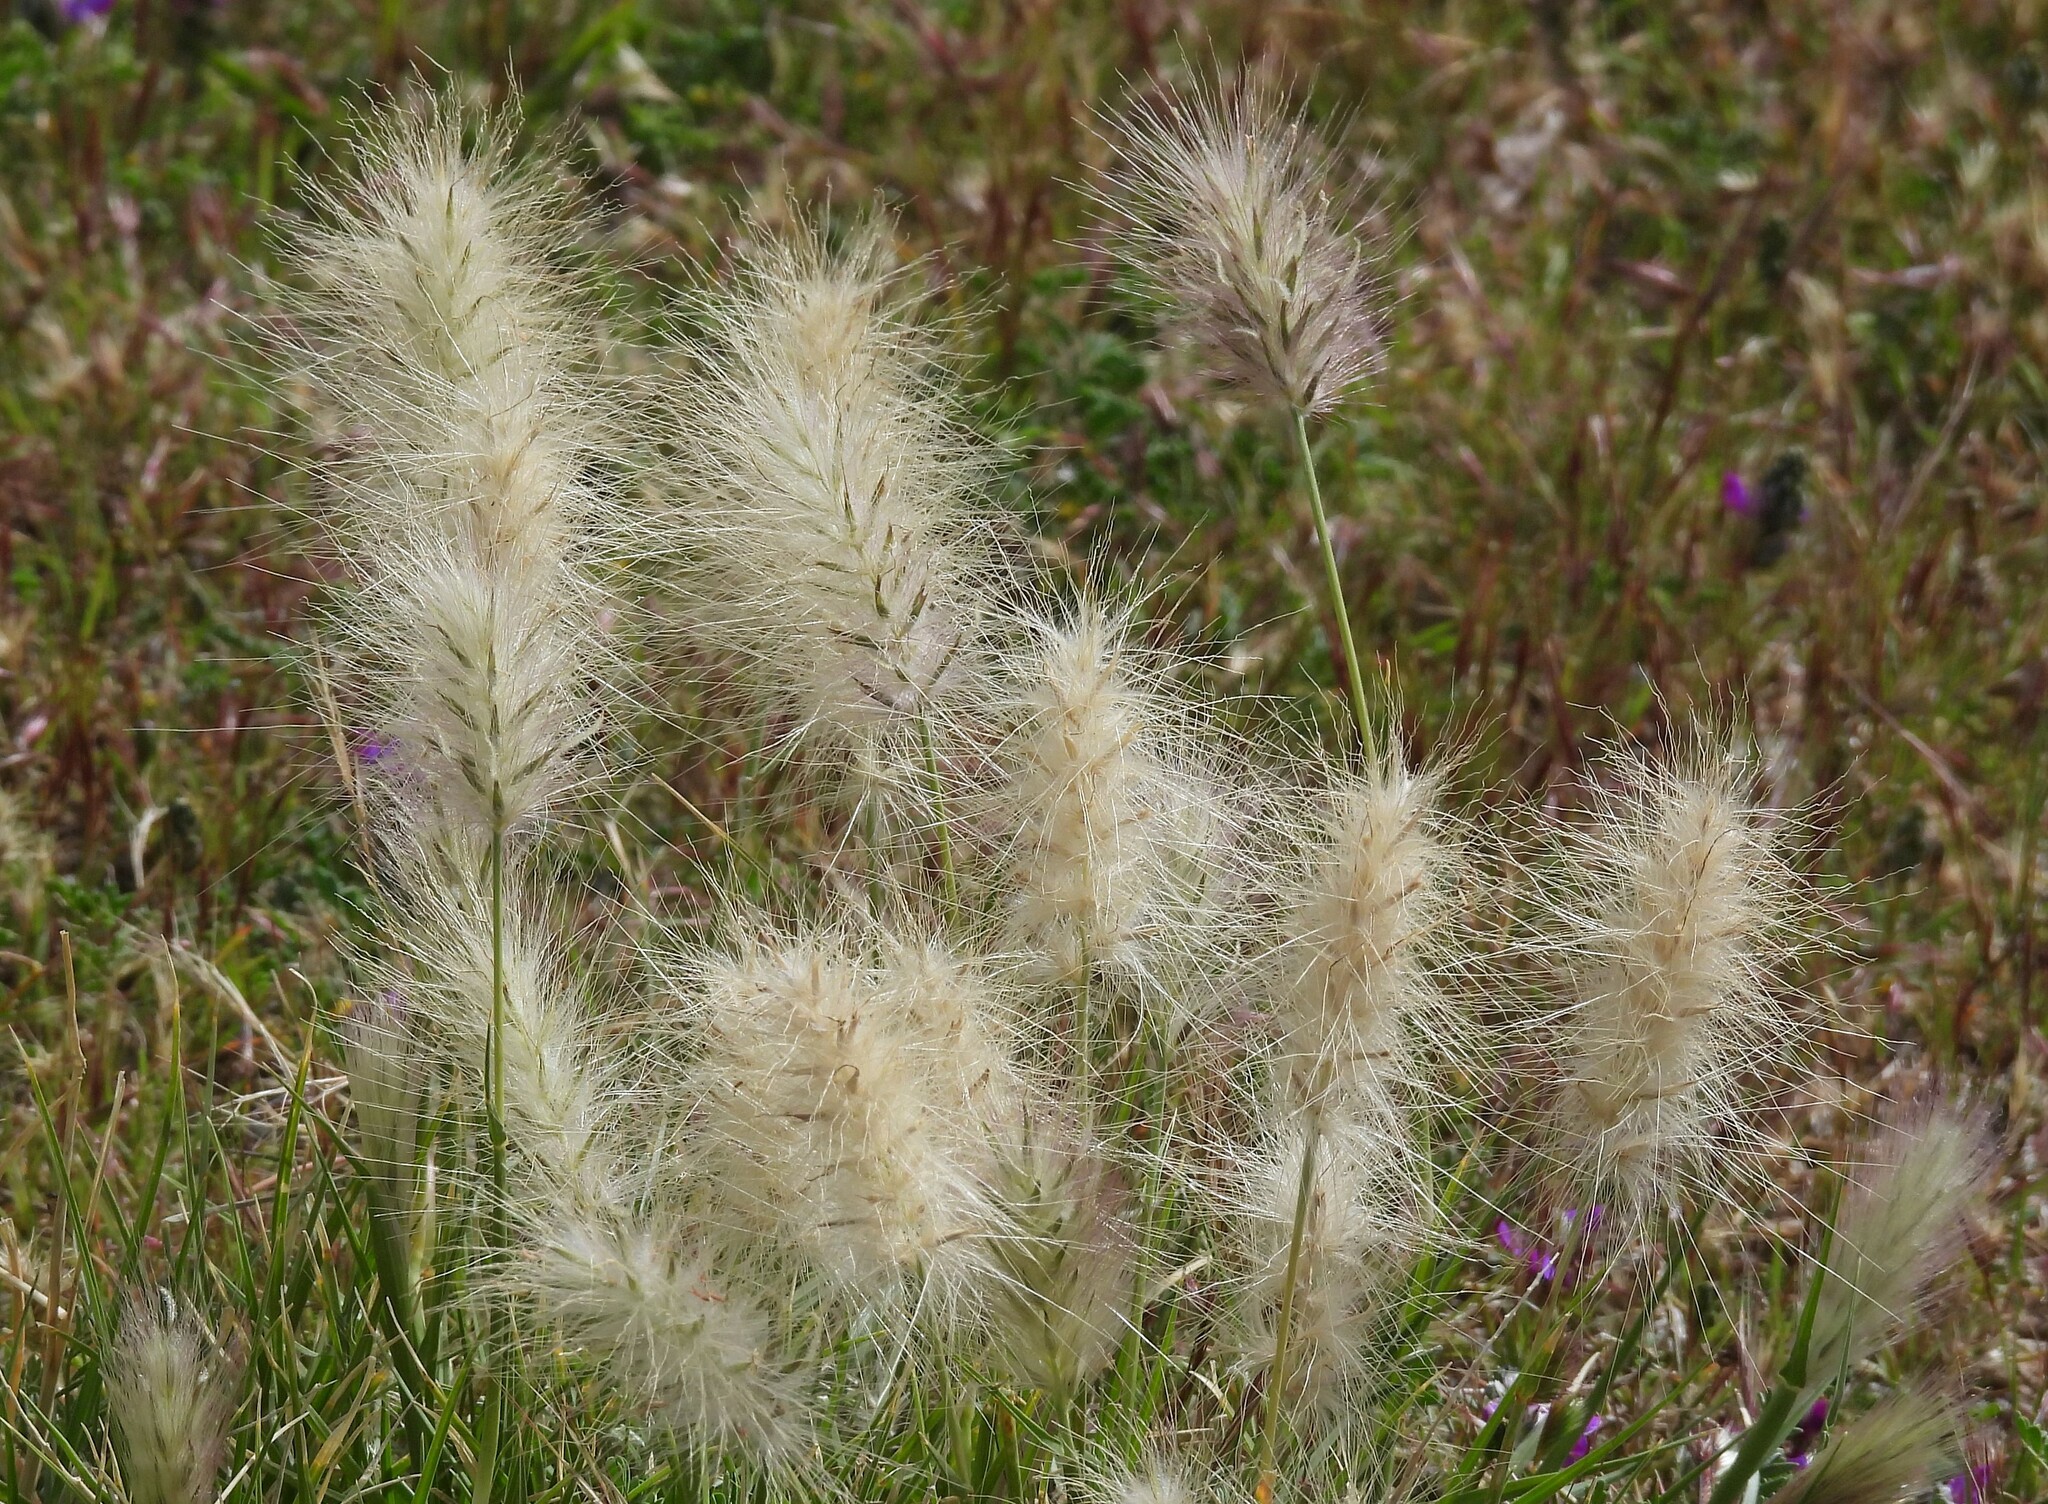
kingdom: Plantae
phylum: Tracheophyta
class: Liliopsida
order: Poales
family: Poaceae
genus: Cenchrus
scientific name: Cenchrus longisetus
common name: Feathertop
